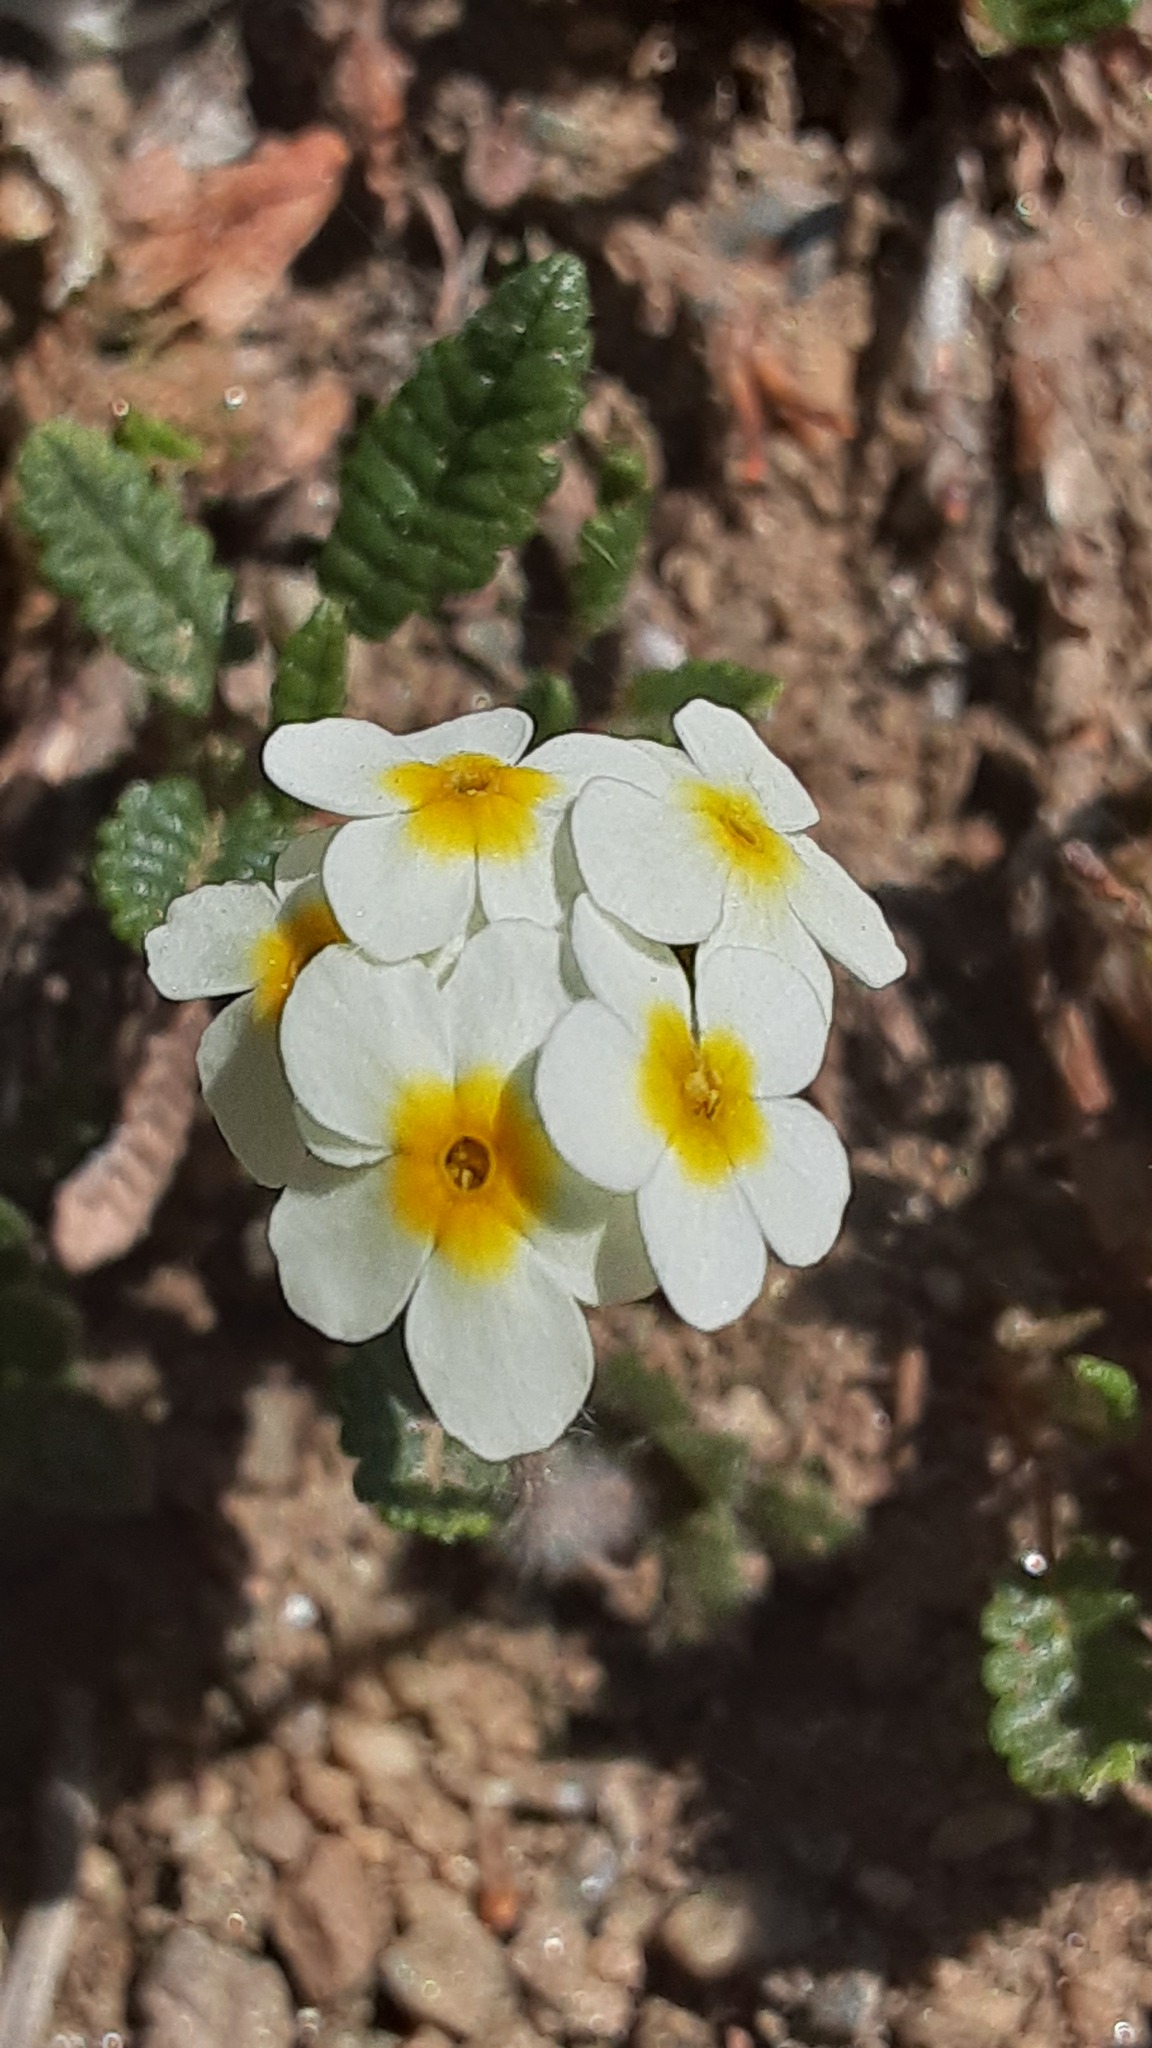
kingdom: Plantae
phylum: Tracheophyta
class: Magnoliopsida
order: Ericales
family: Primulaceae
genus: Androsace
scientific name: Androsace chamaejasme
